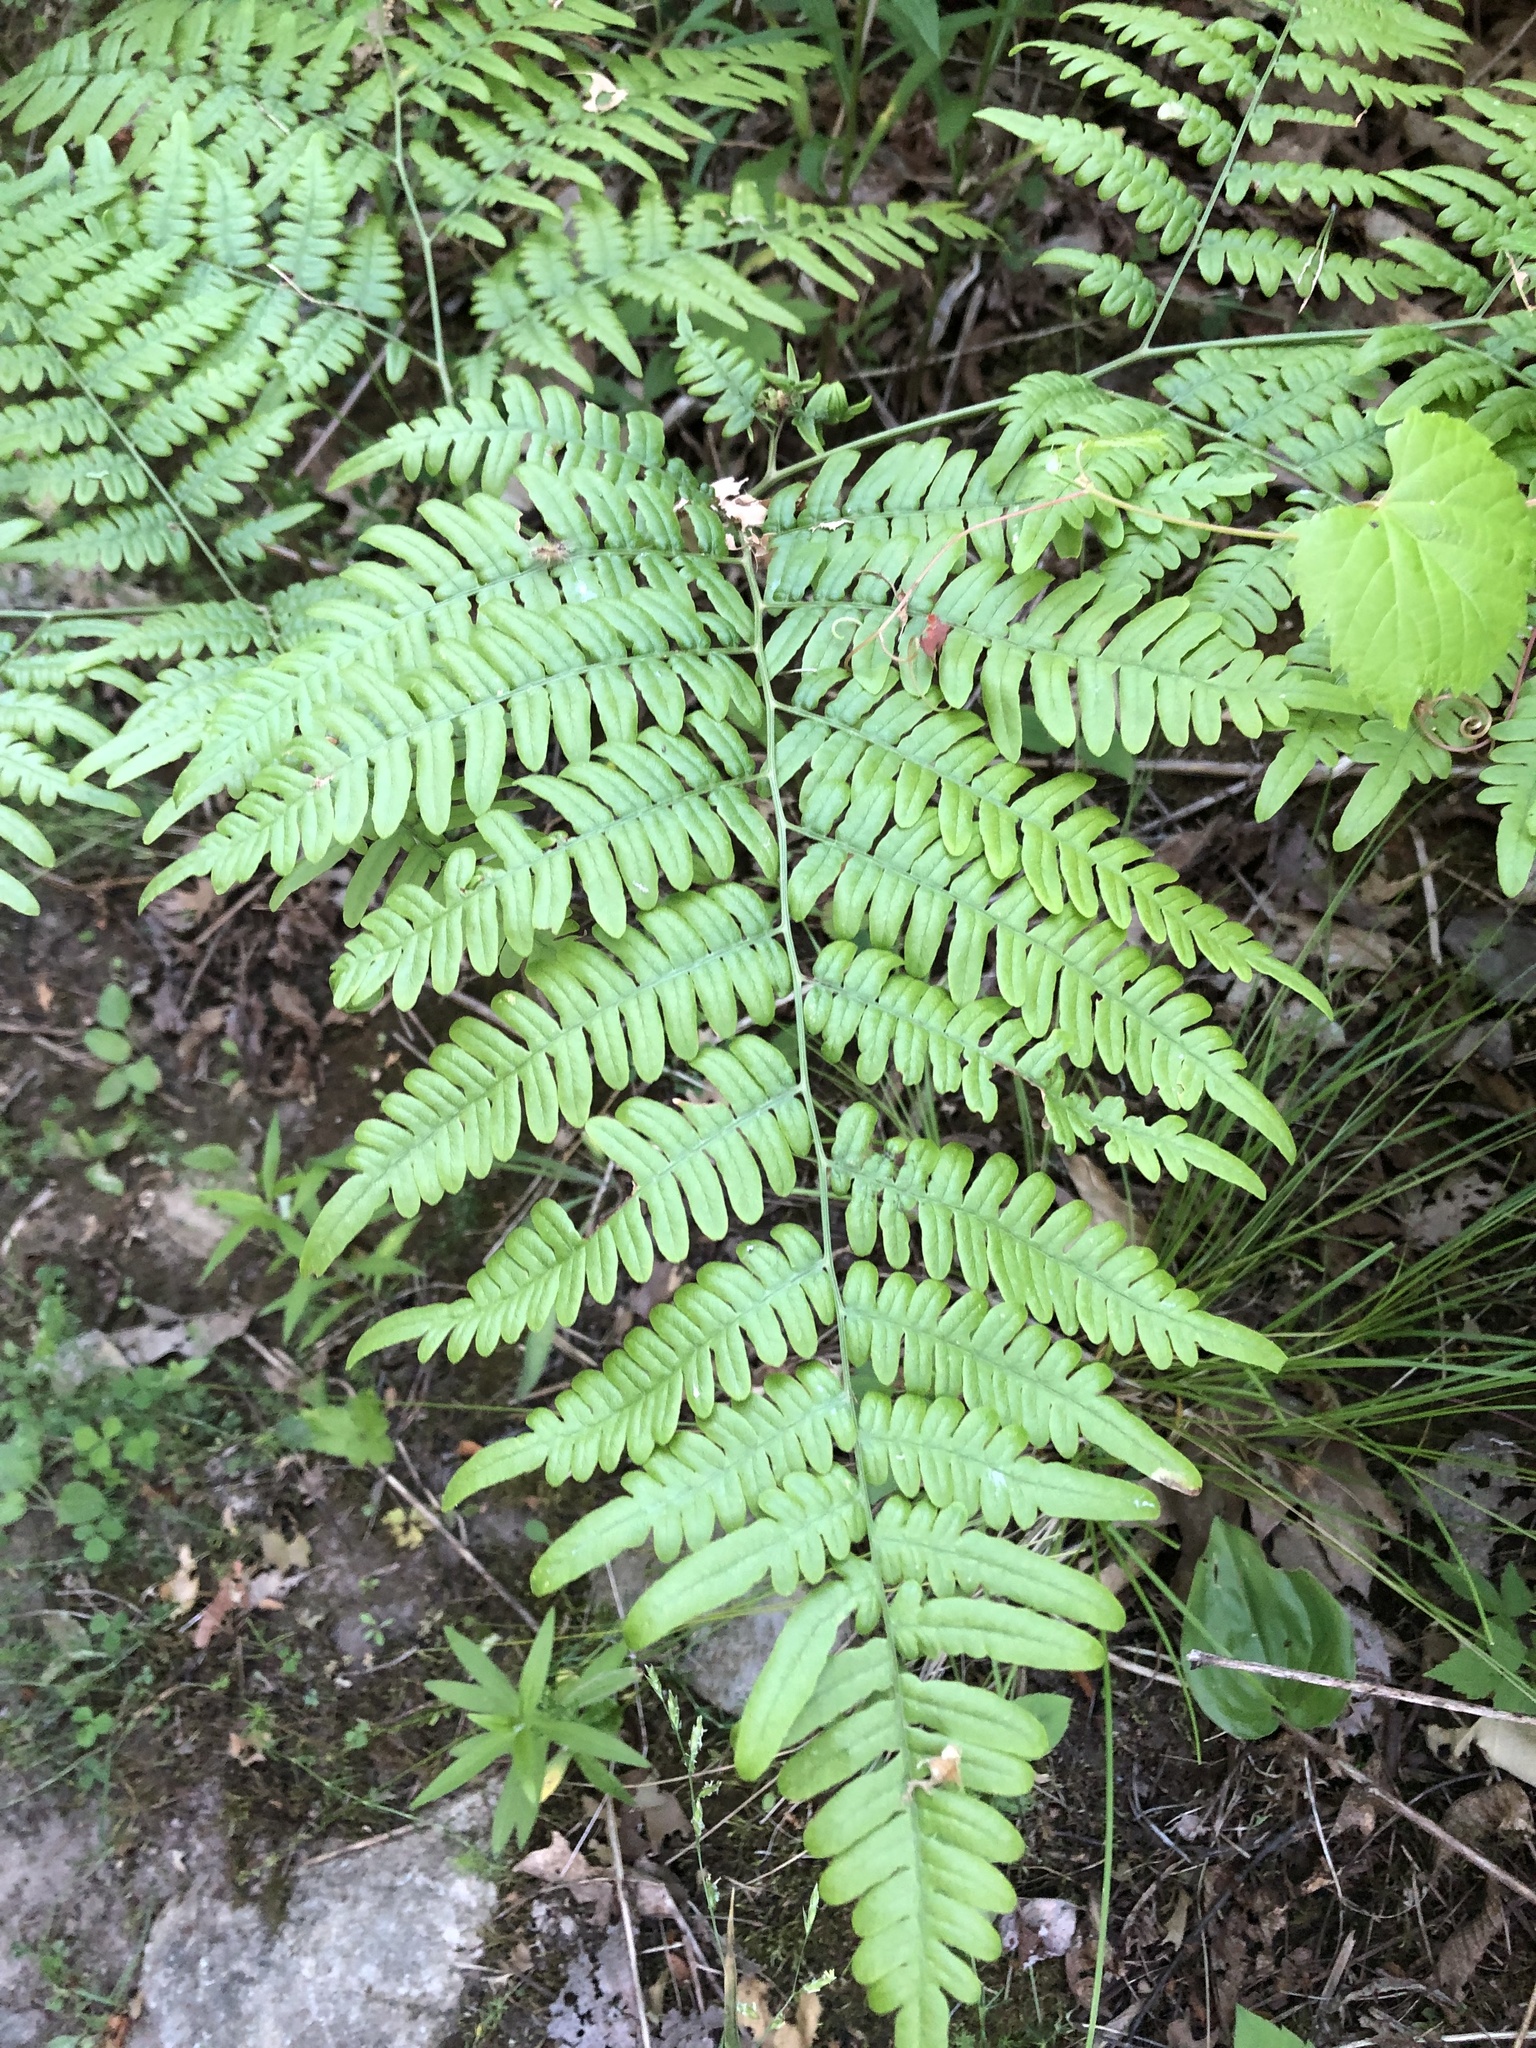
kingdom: Plantae
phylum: Tracheophyta
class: Polypodiopsida
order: Polypodiales
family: Dennstaedtiaceae
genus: Pteridium
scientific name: Pteridium aquilinum
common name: Bracken
